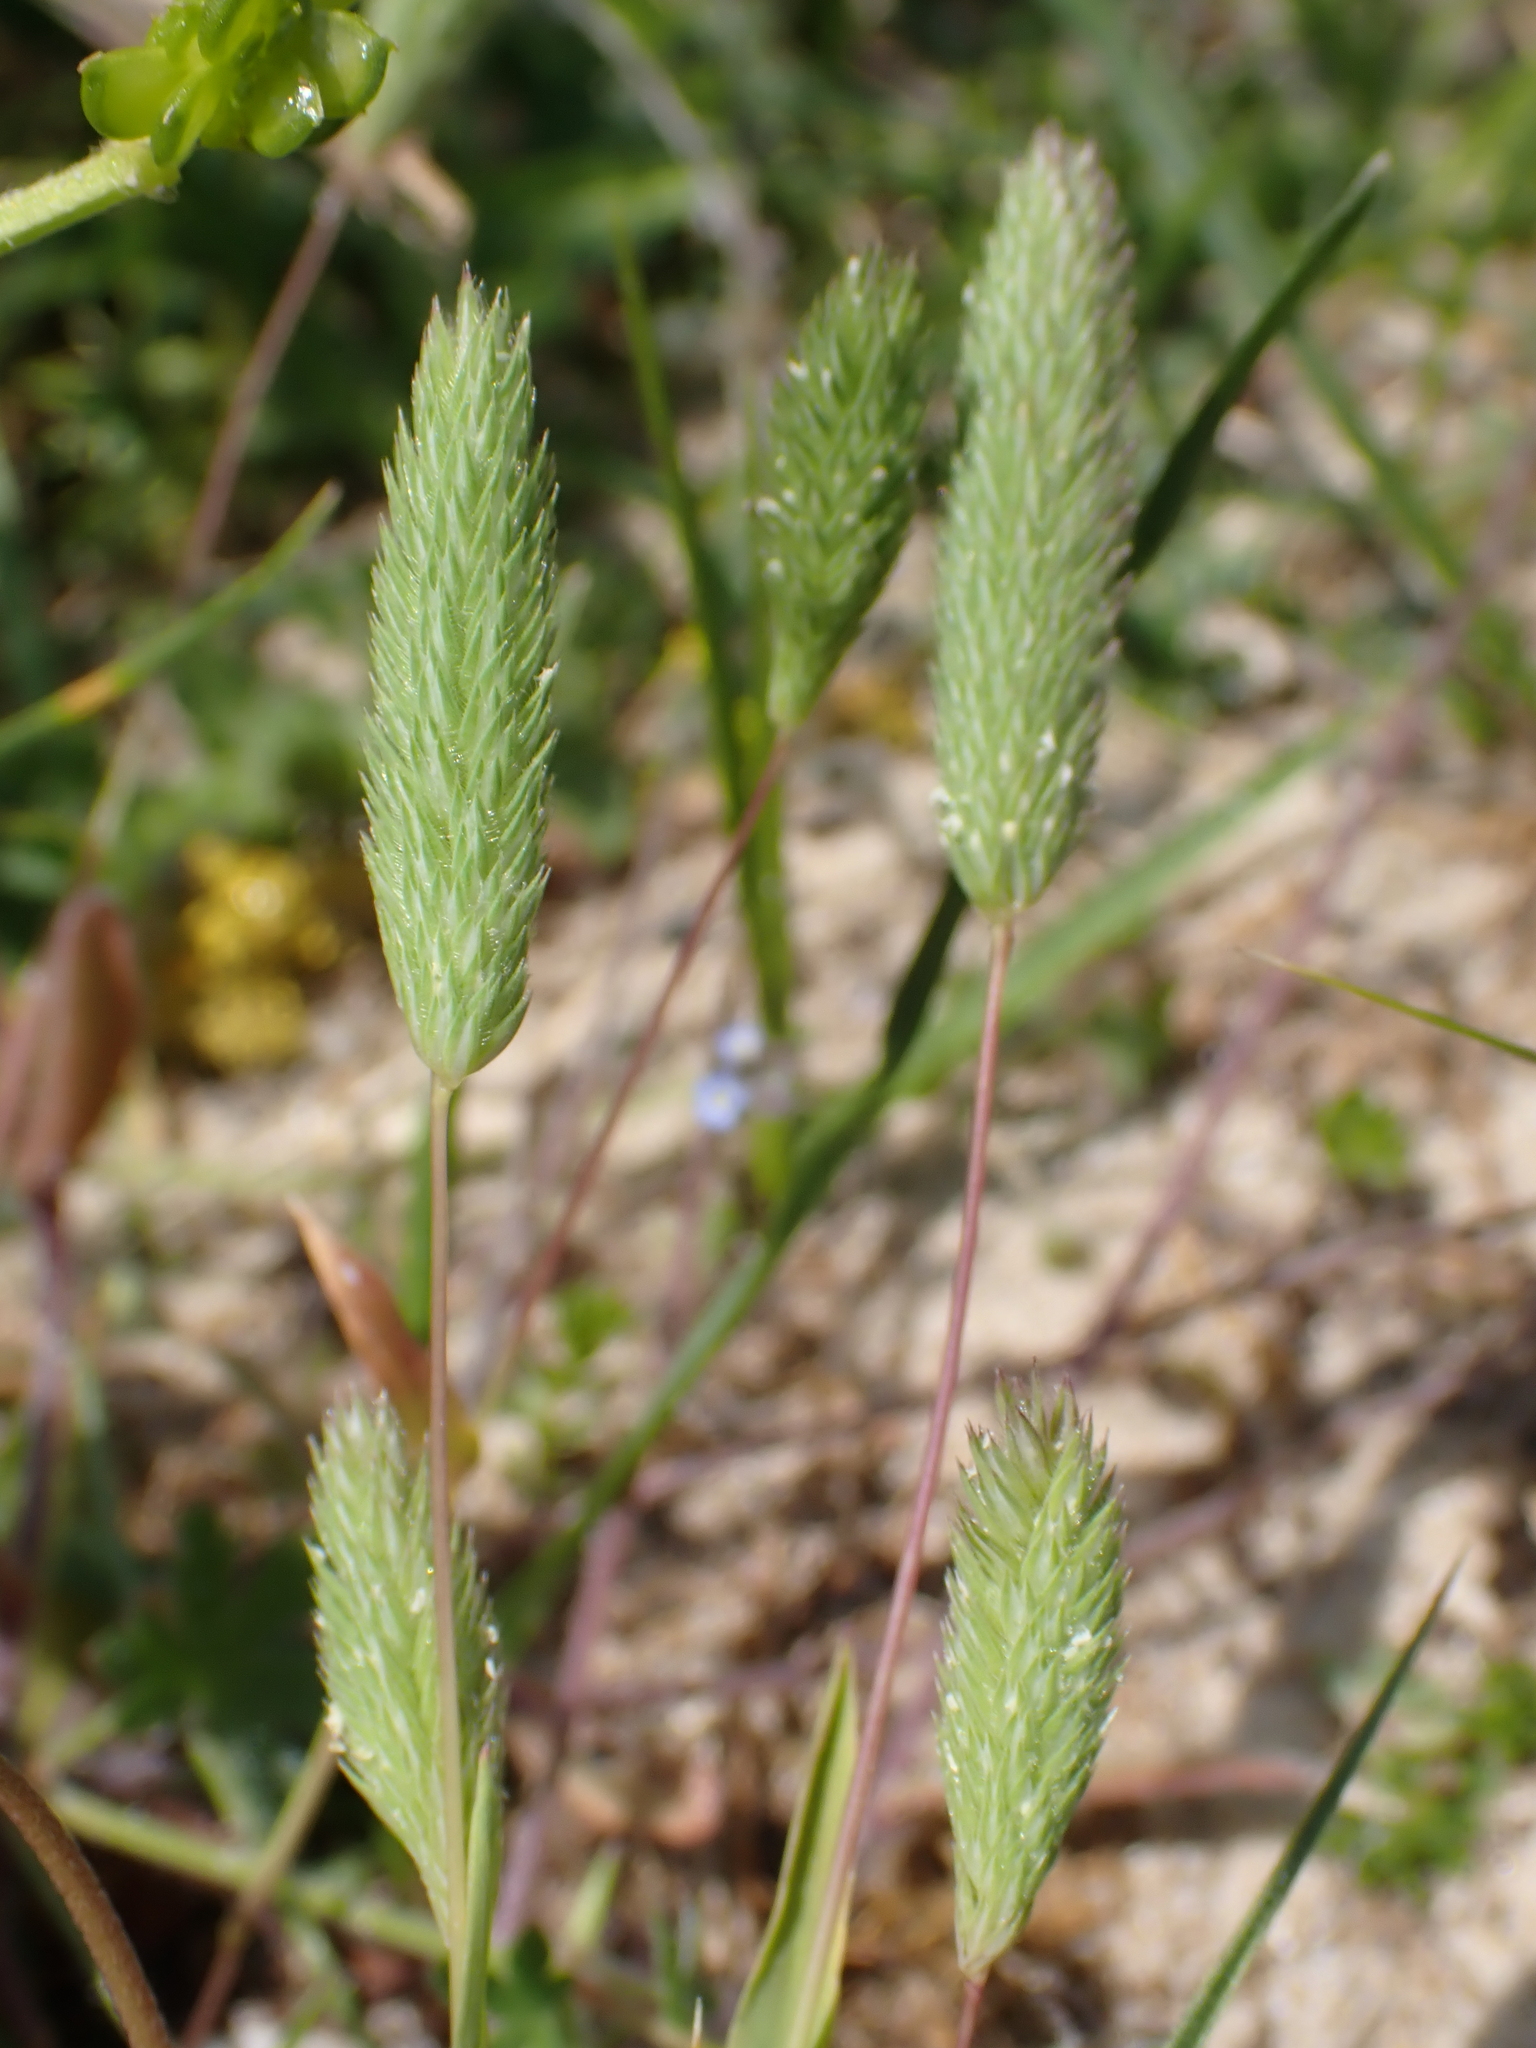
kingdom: Plantae
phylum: Tracheophyta
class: Liliopsida
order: Poales
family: Poaceae
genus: Phleum
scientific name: Phleum arenarium
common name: Sand cat's-tail
